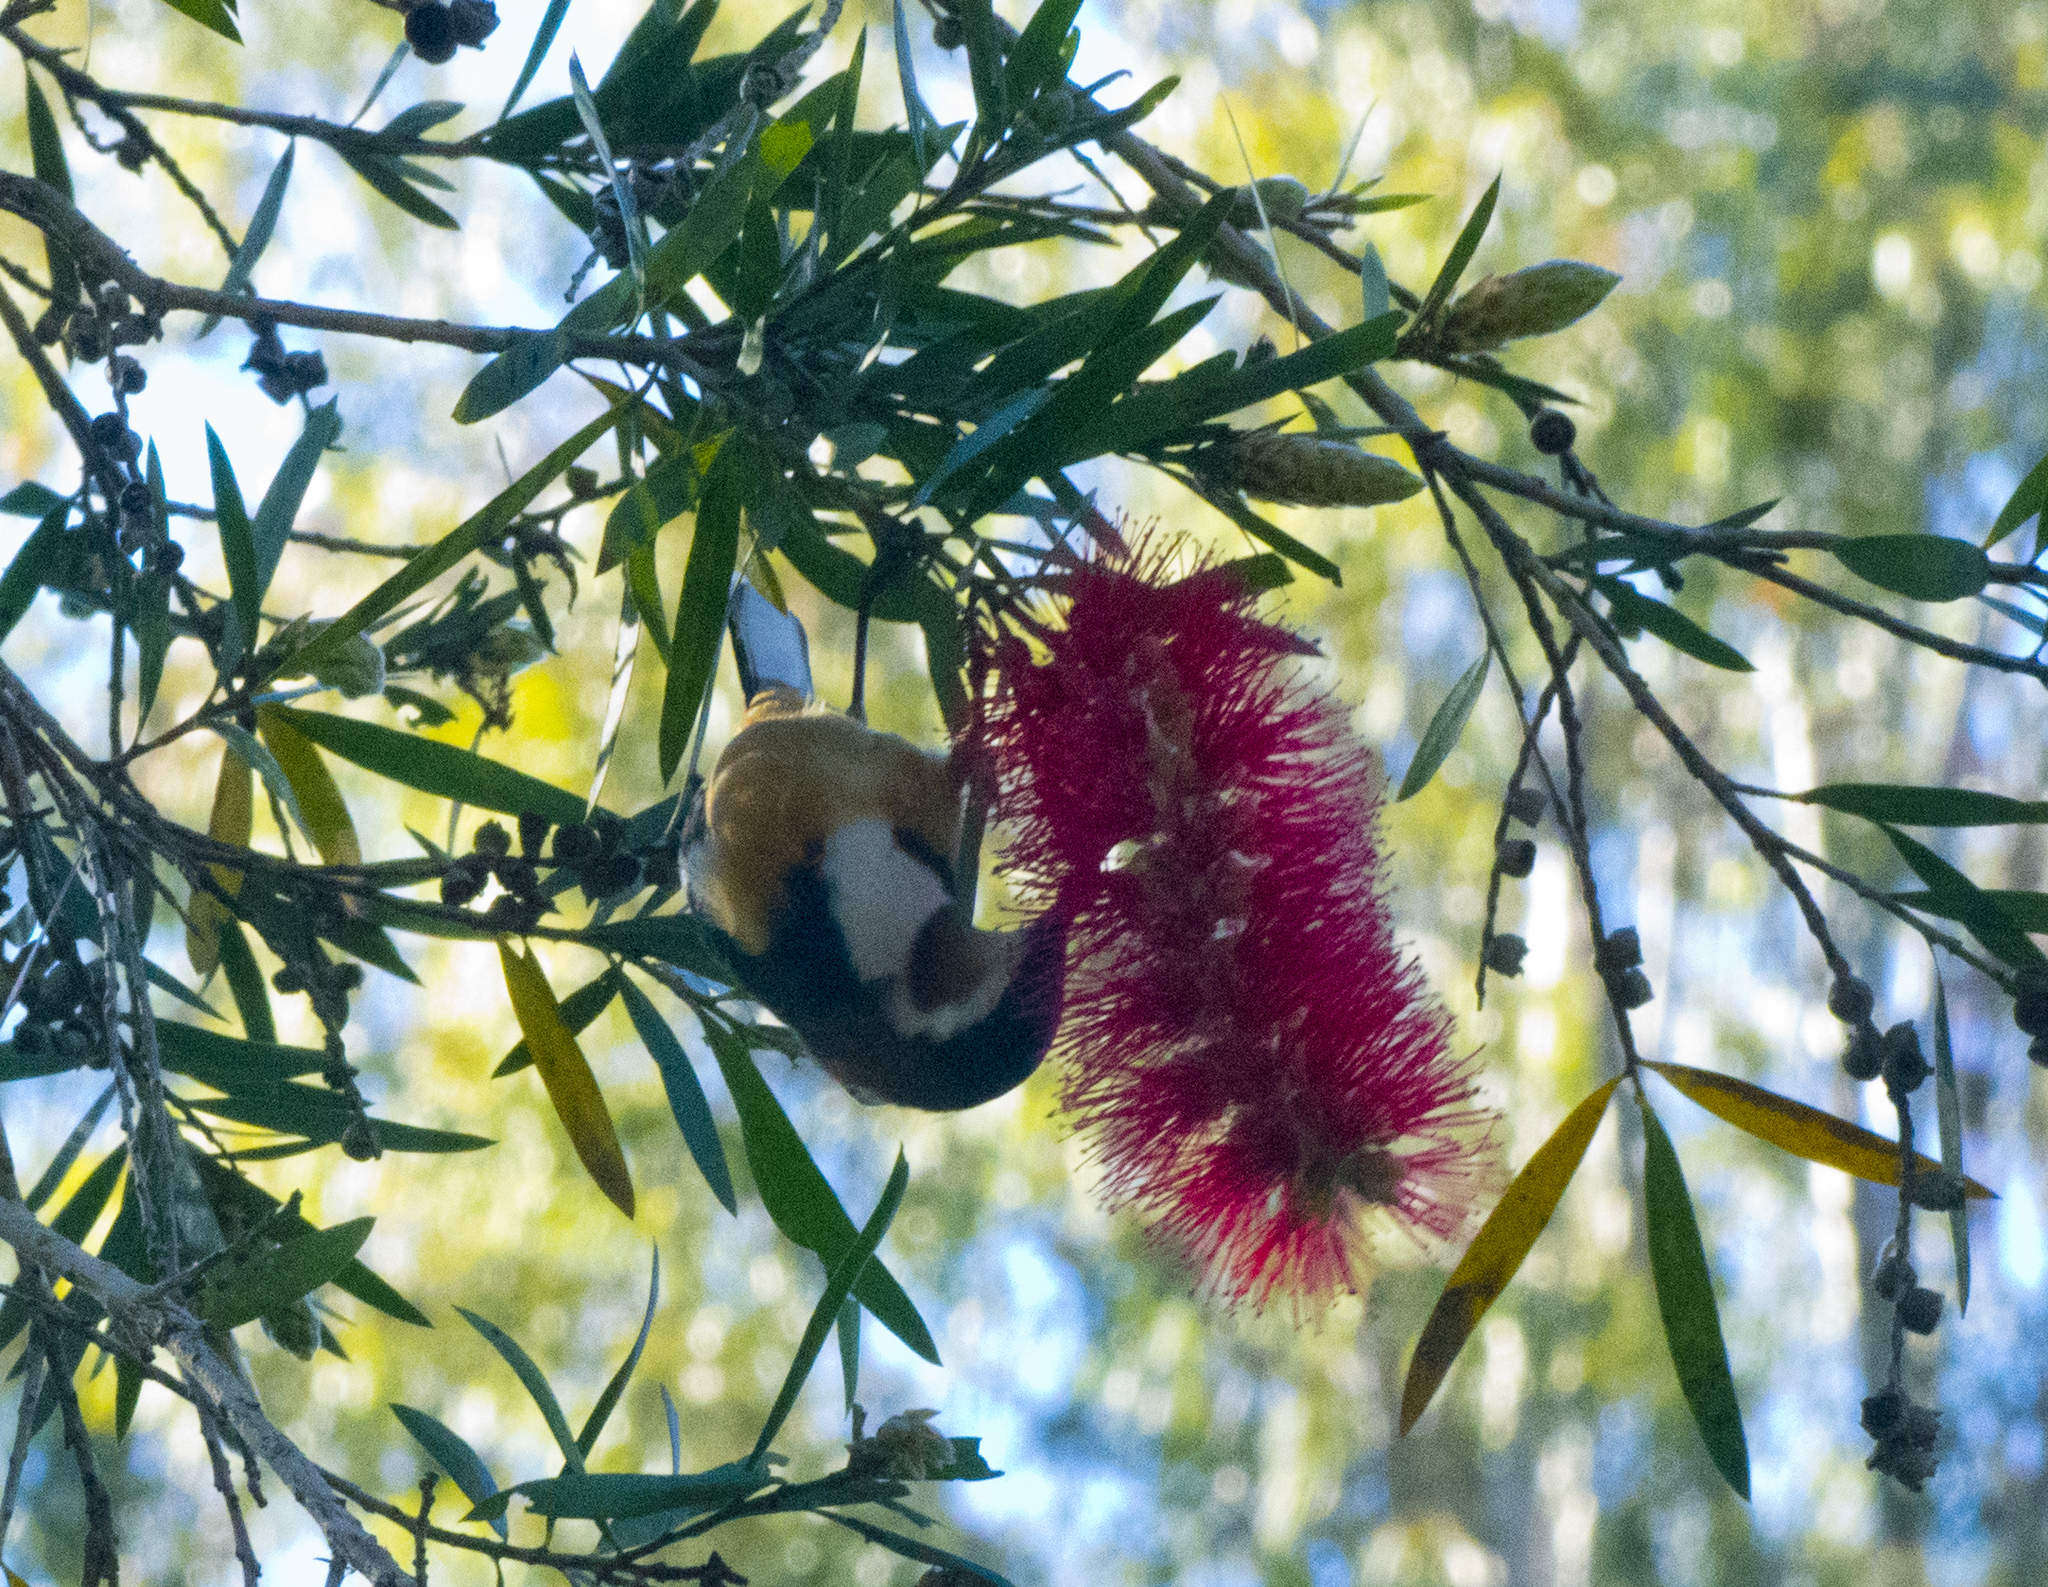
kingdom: Animalia
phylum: Chordata
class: Aves
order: Passeriformes
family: Meliphagidae
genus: Acanthorhynchus
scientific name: Acanthorhynchus tenuirostris
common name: Eastern spinebill
